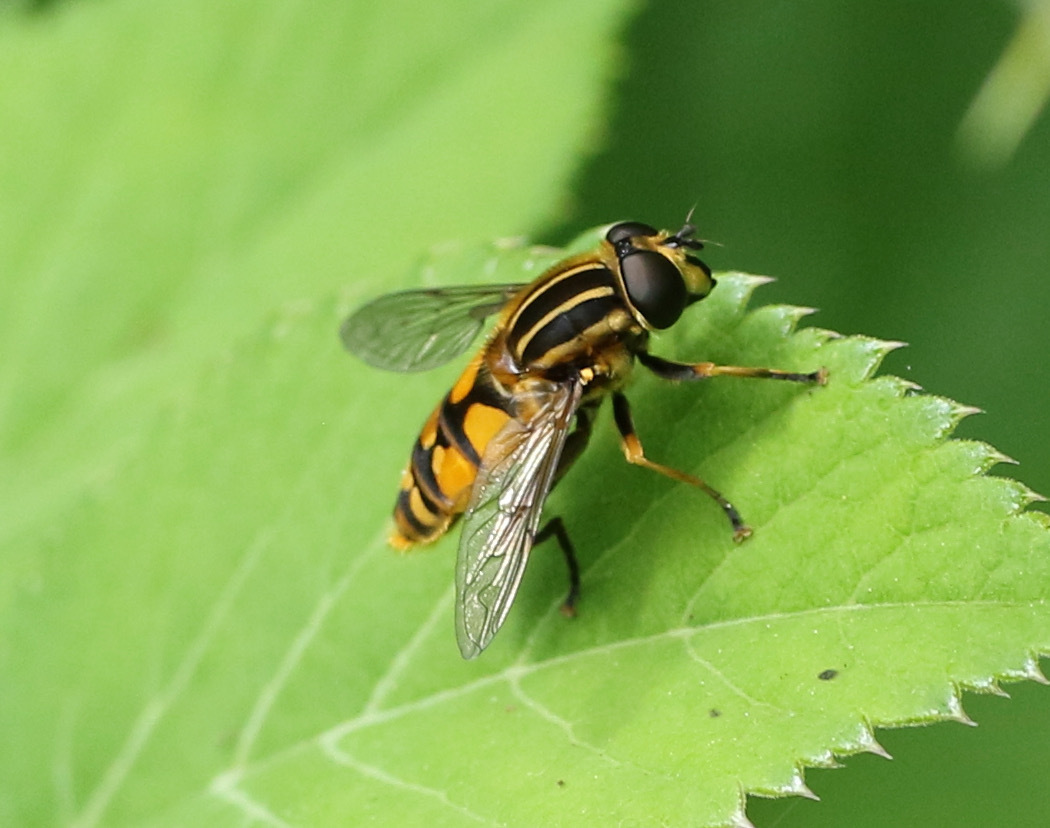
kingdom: Animalia
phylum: Arthropoda
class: Insecta
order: Diptera
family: Syrphidae
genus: Helophilus
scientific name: Helophilus pendulus
